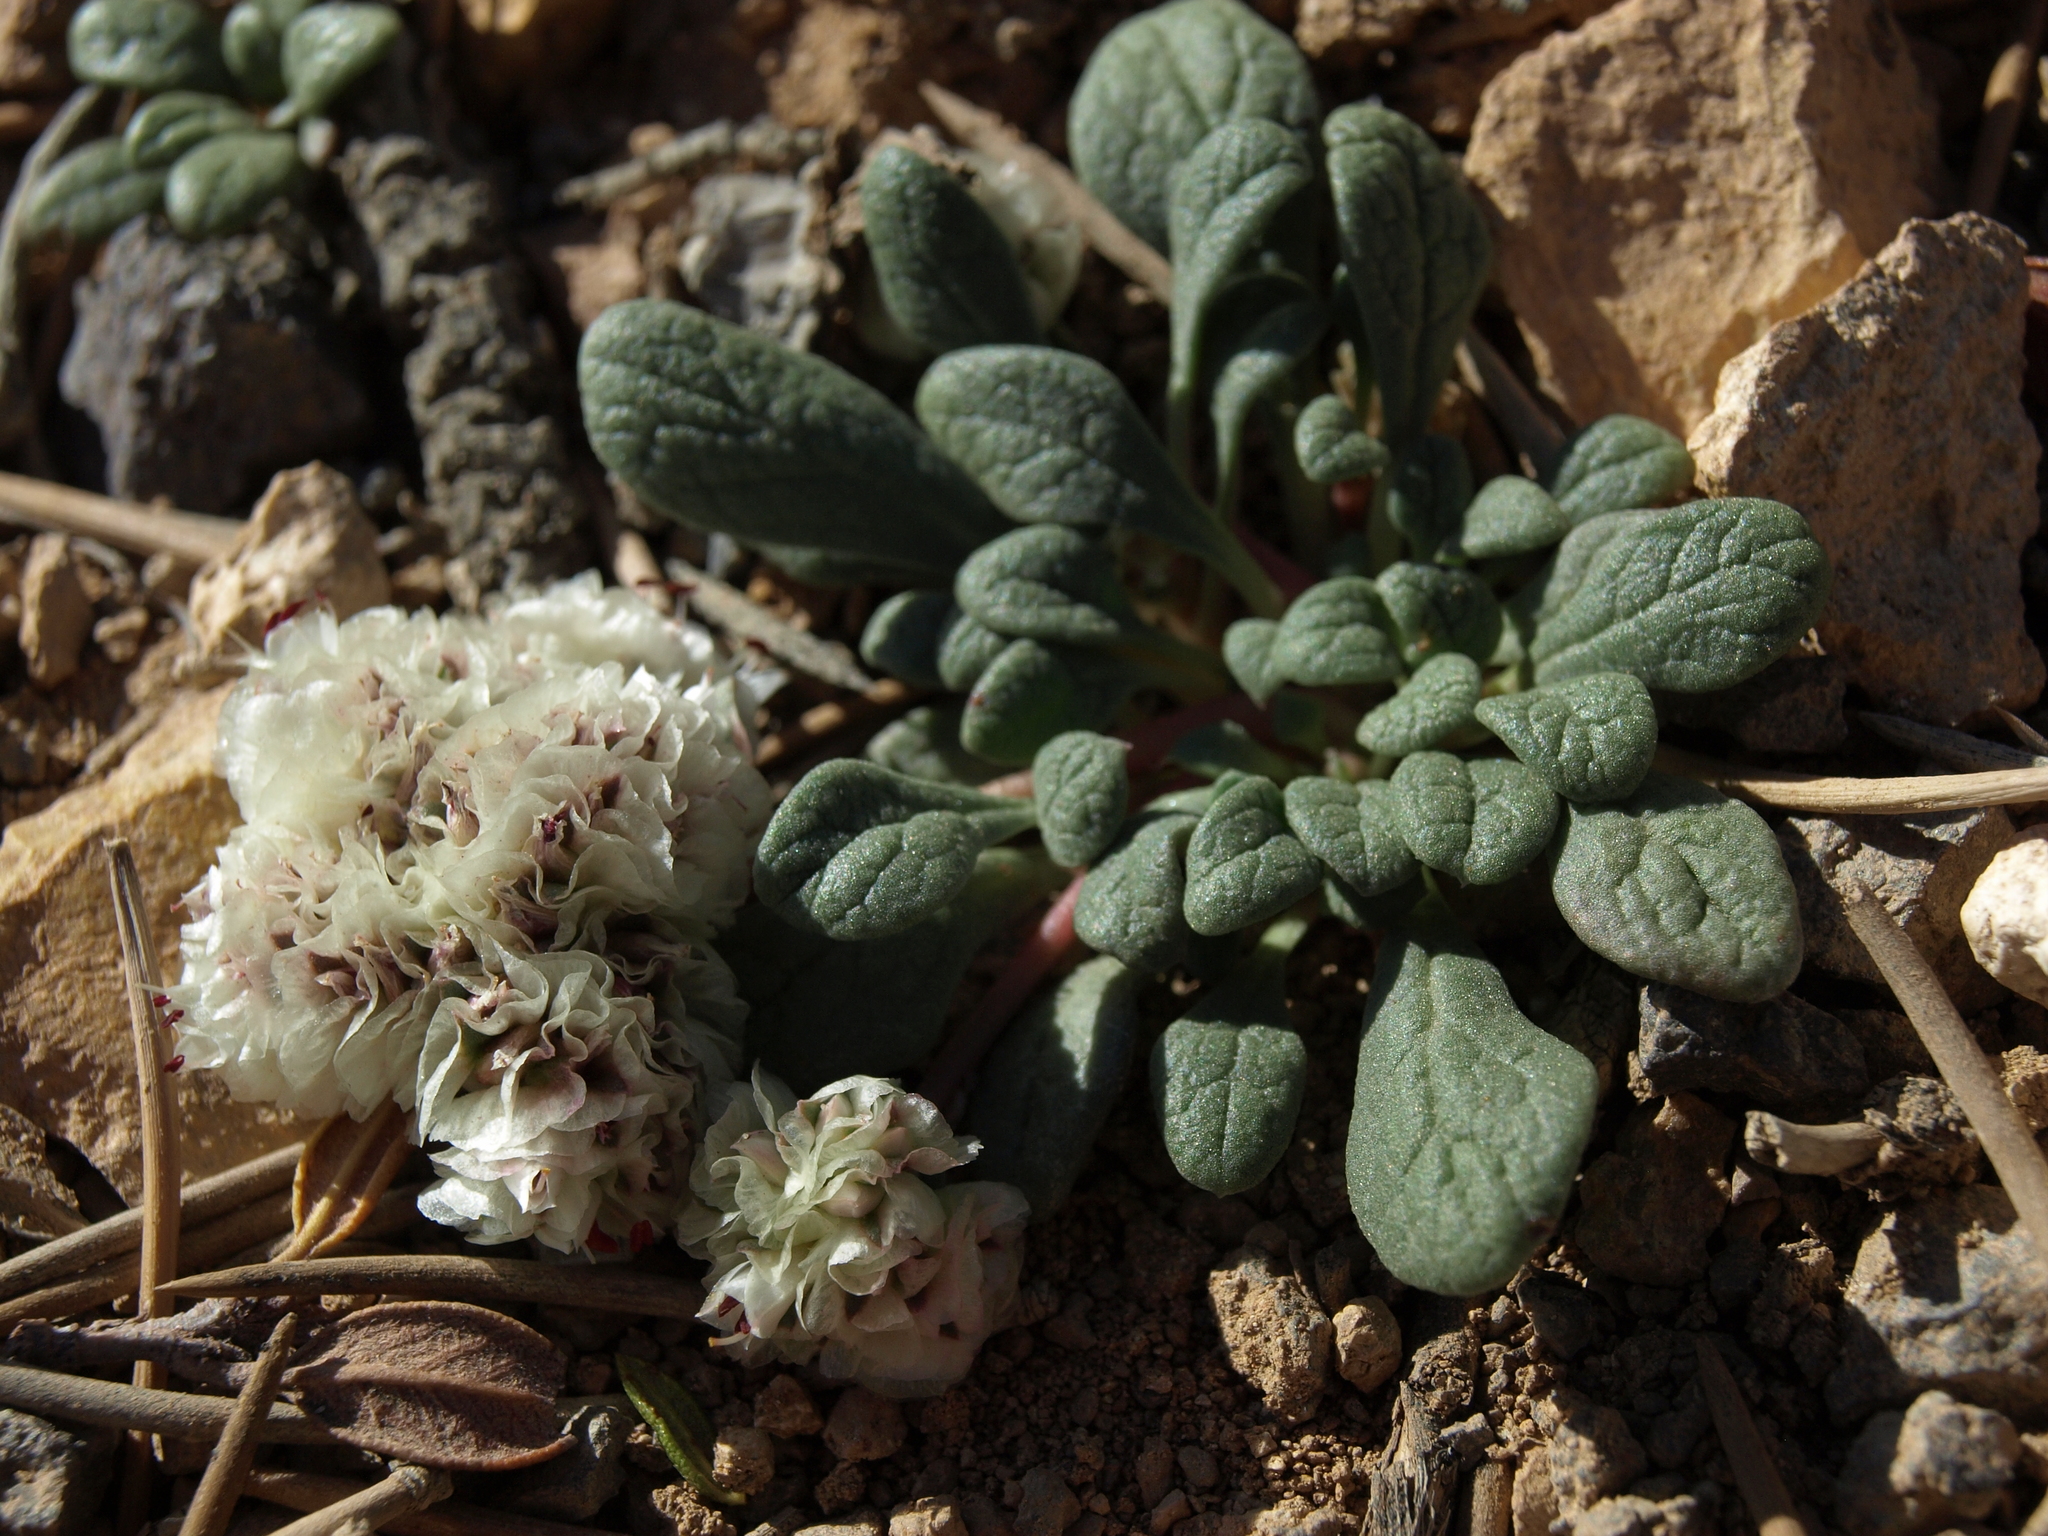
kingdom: Plantae
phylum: Tracheophyta
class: Magnoliopsida
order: Caryophyllales
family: Montiaceae
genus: Calyptridium
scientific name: Calyptridium umbellatum
